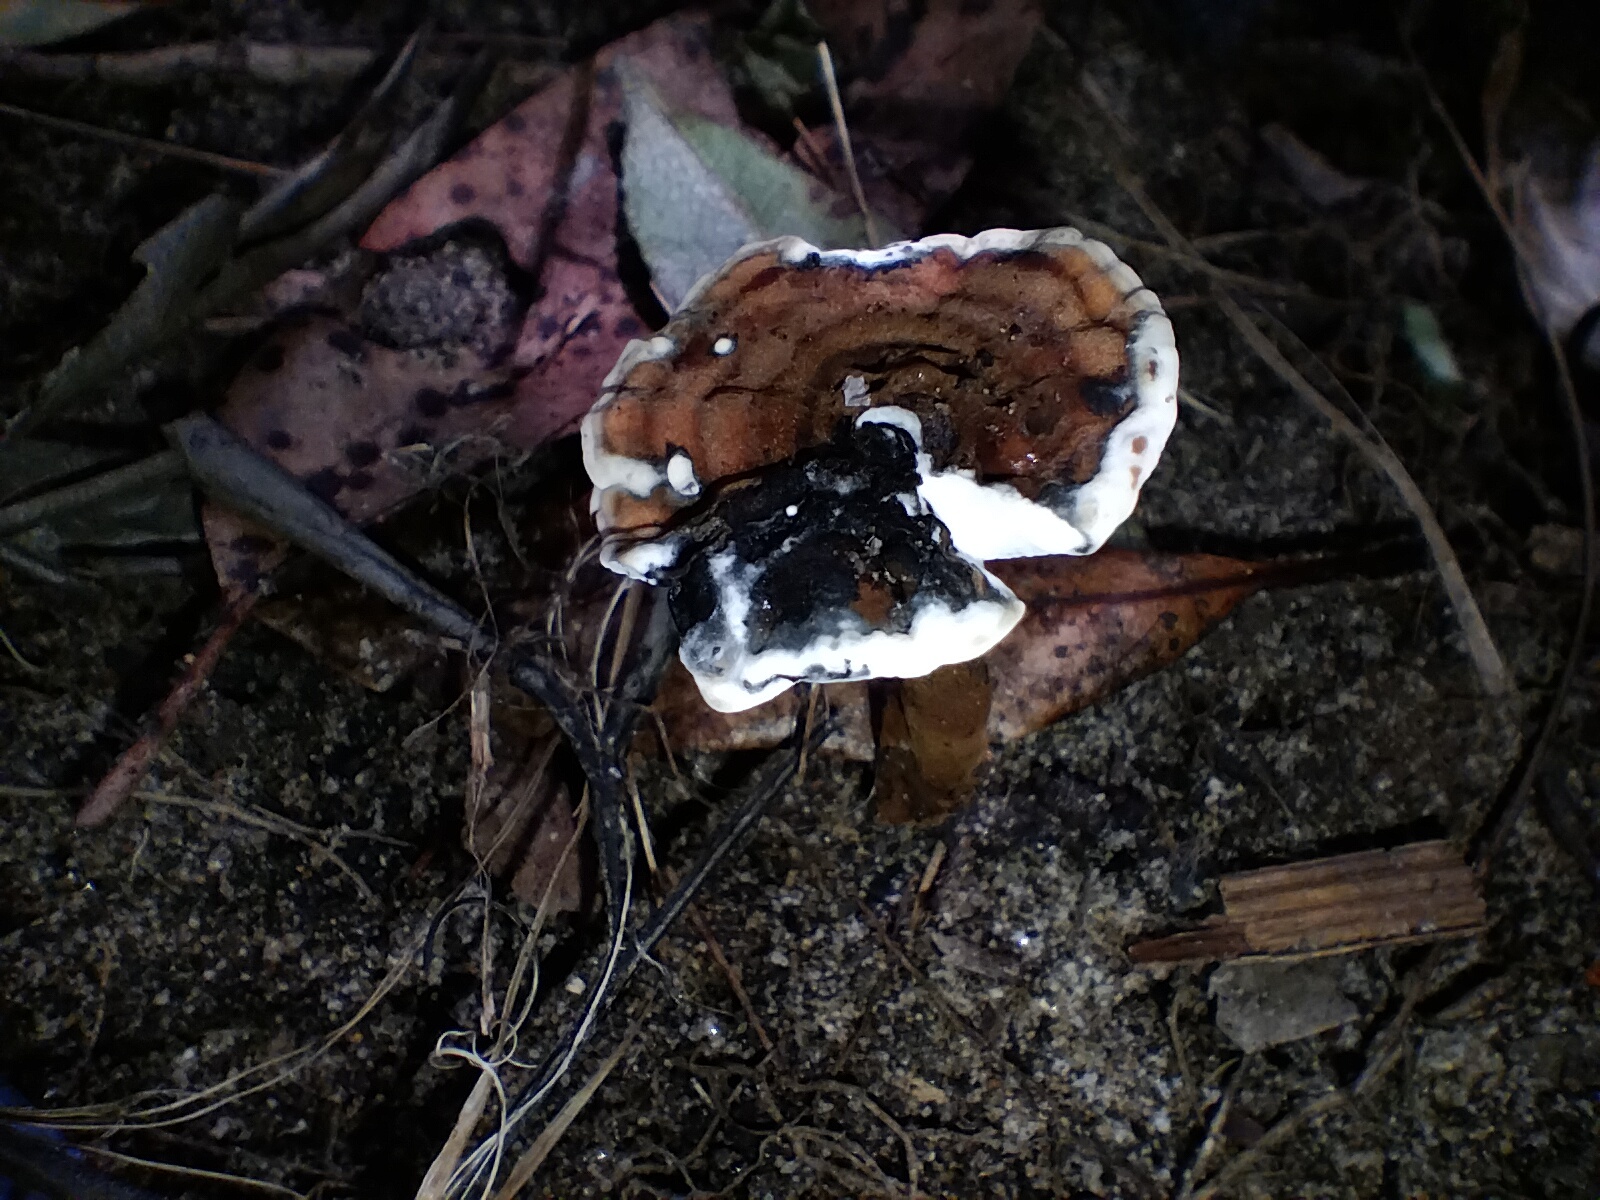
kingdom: Fungi
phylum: Basidiomycota
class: Agaricomycetes
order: Polyporales
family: Ganodermataceae
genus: Sanguinoderma
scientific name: Sanguinoderma rude
